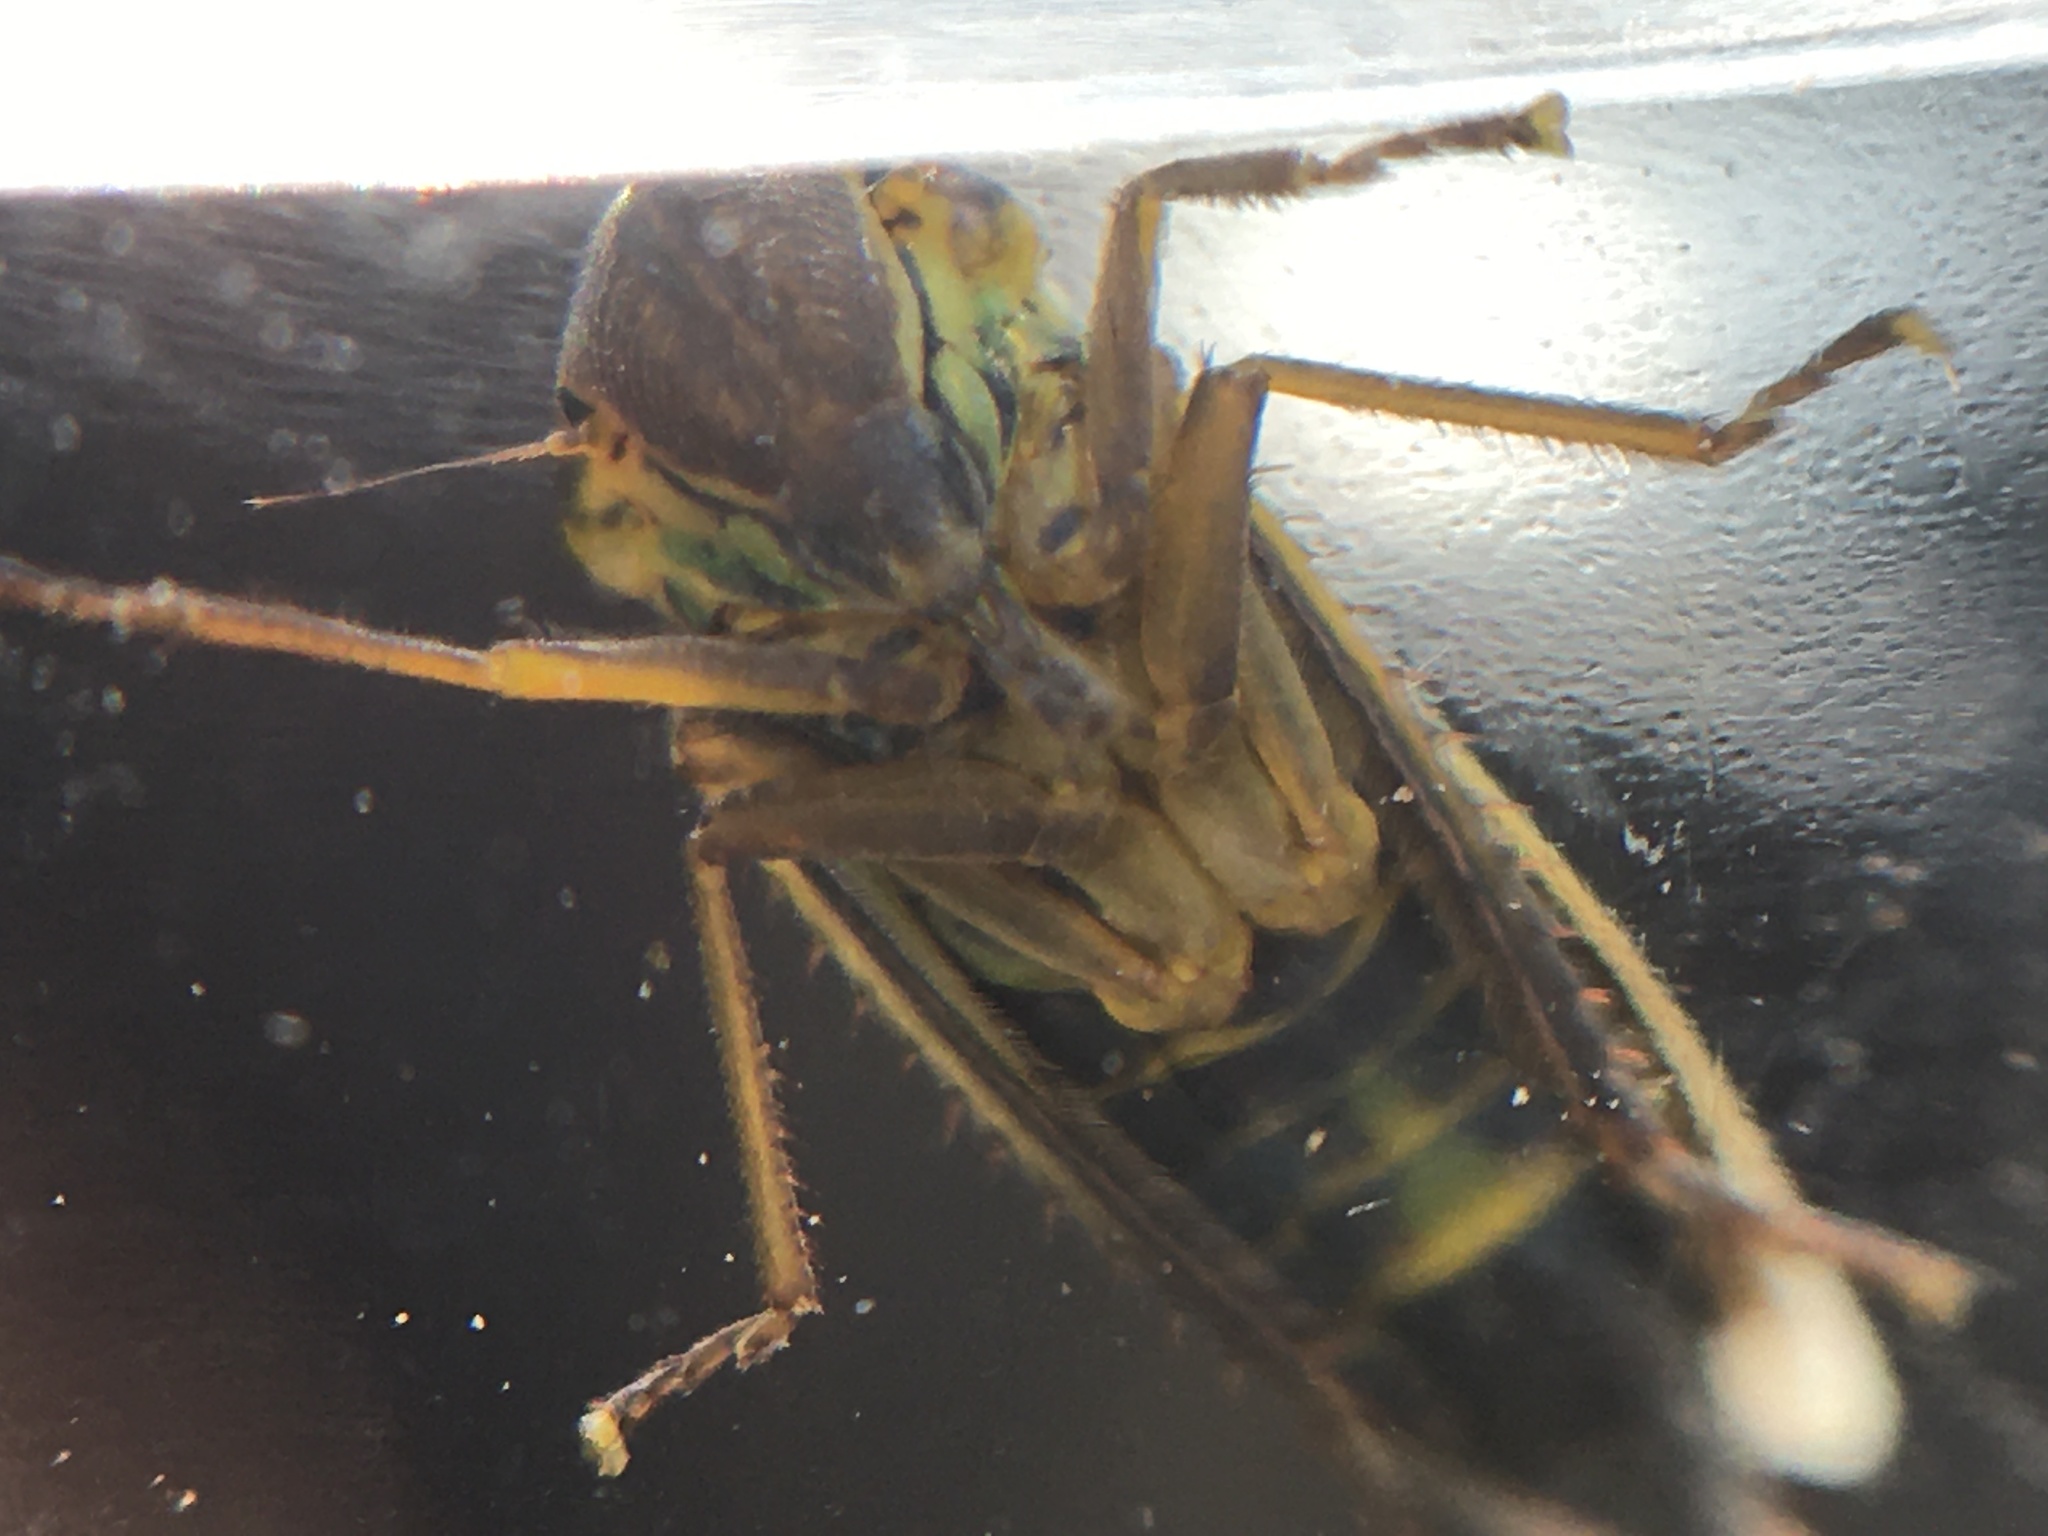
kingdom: Animalia
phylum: Arthropoda
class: Insecta
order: Hemiptera
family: Cicadellidae
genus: Cicadella
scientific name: Cicadella viridis
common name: Leafhopper
